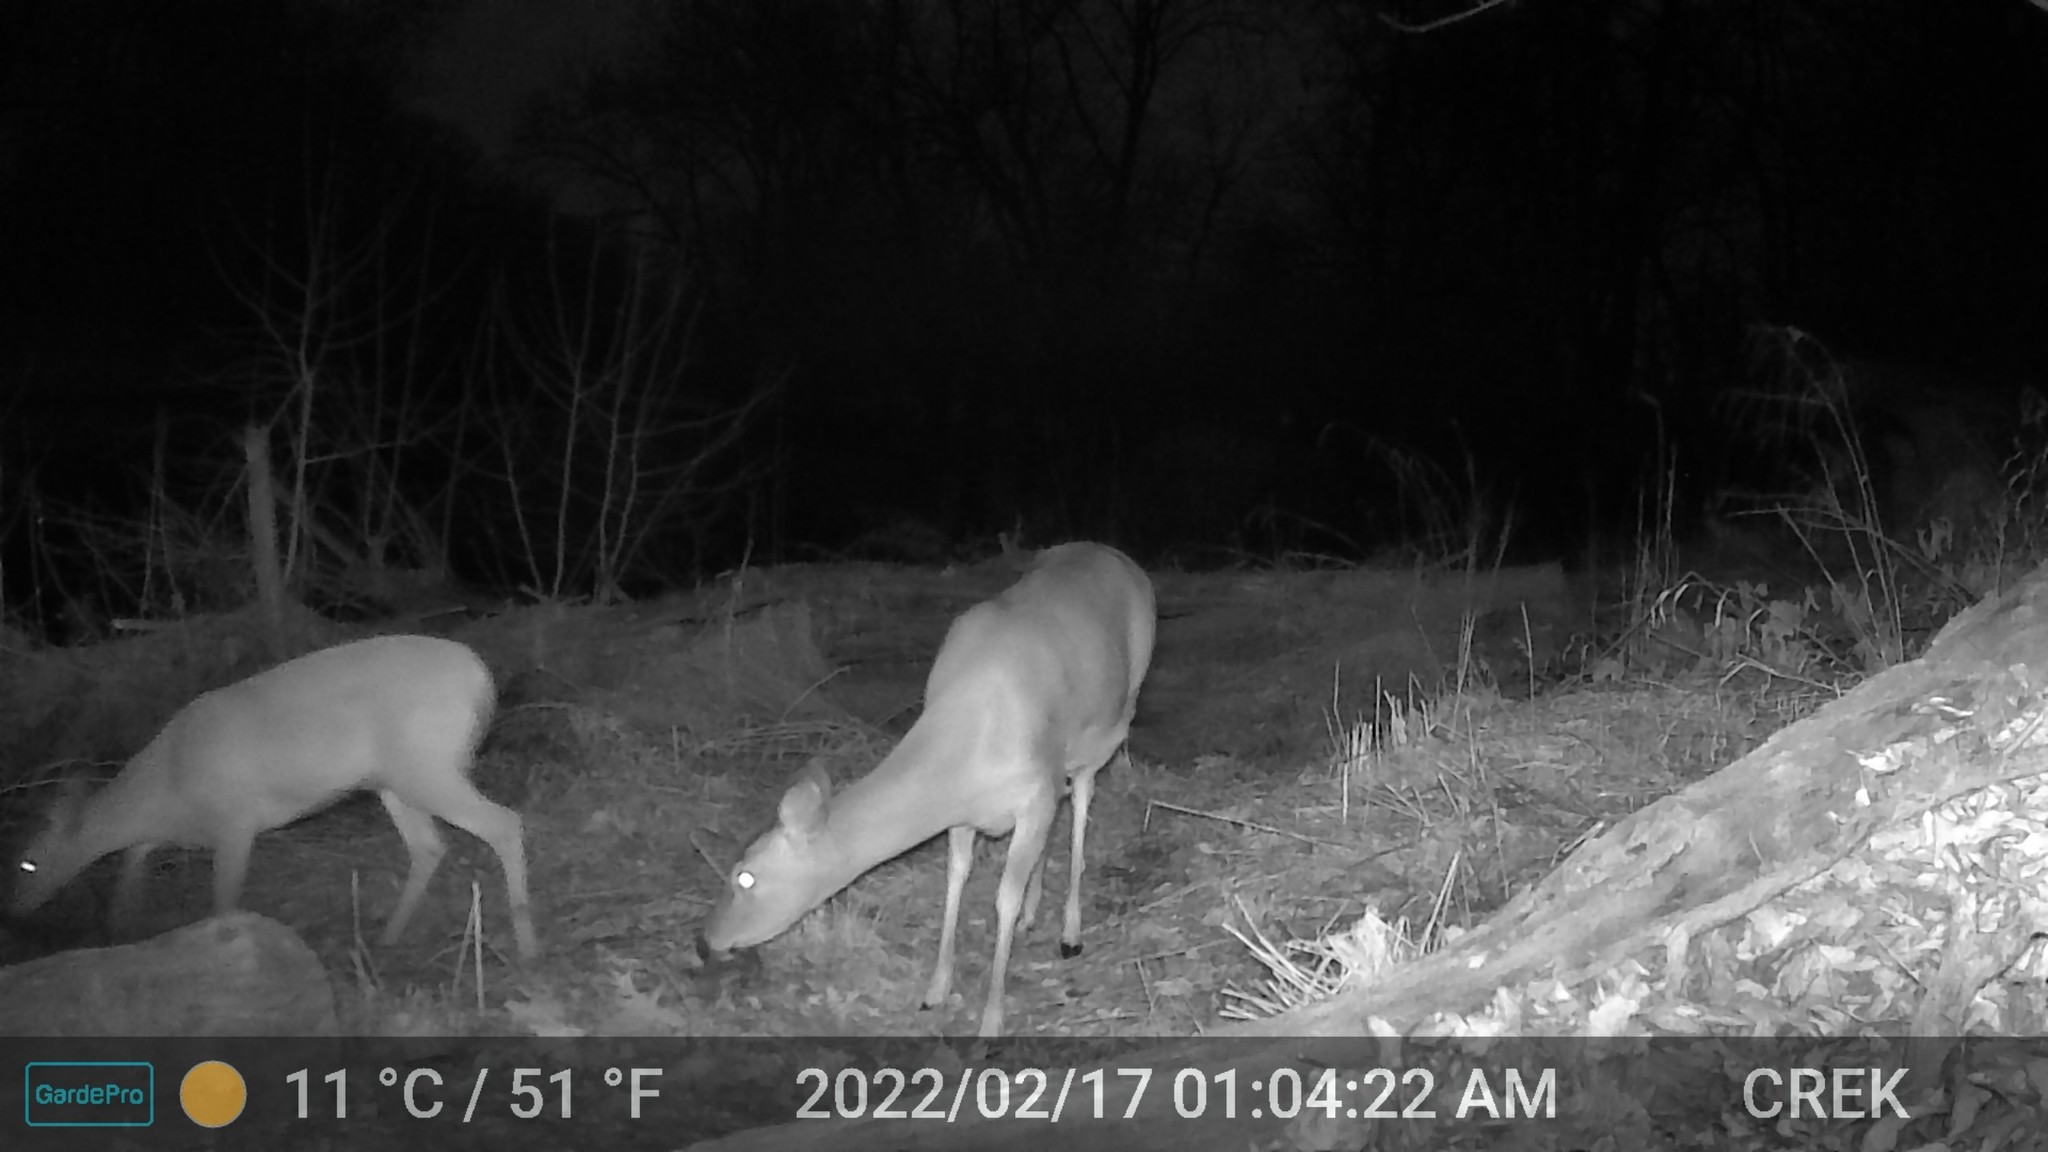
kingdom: Animalia
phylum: Chordata
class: Mammalia
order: Artiodactyla
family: Cervidae
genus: Odocoileus
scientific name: Odocoileus virginianus
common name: White-tailed deer
